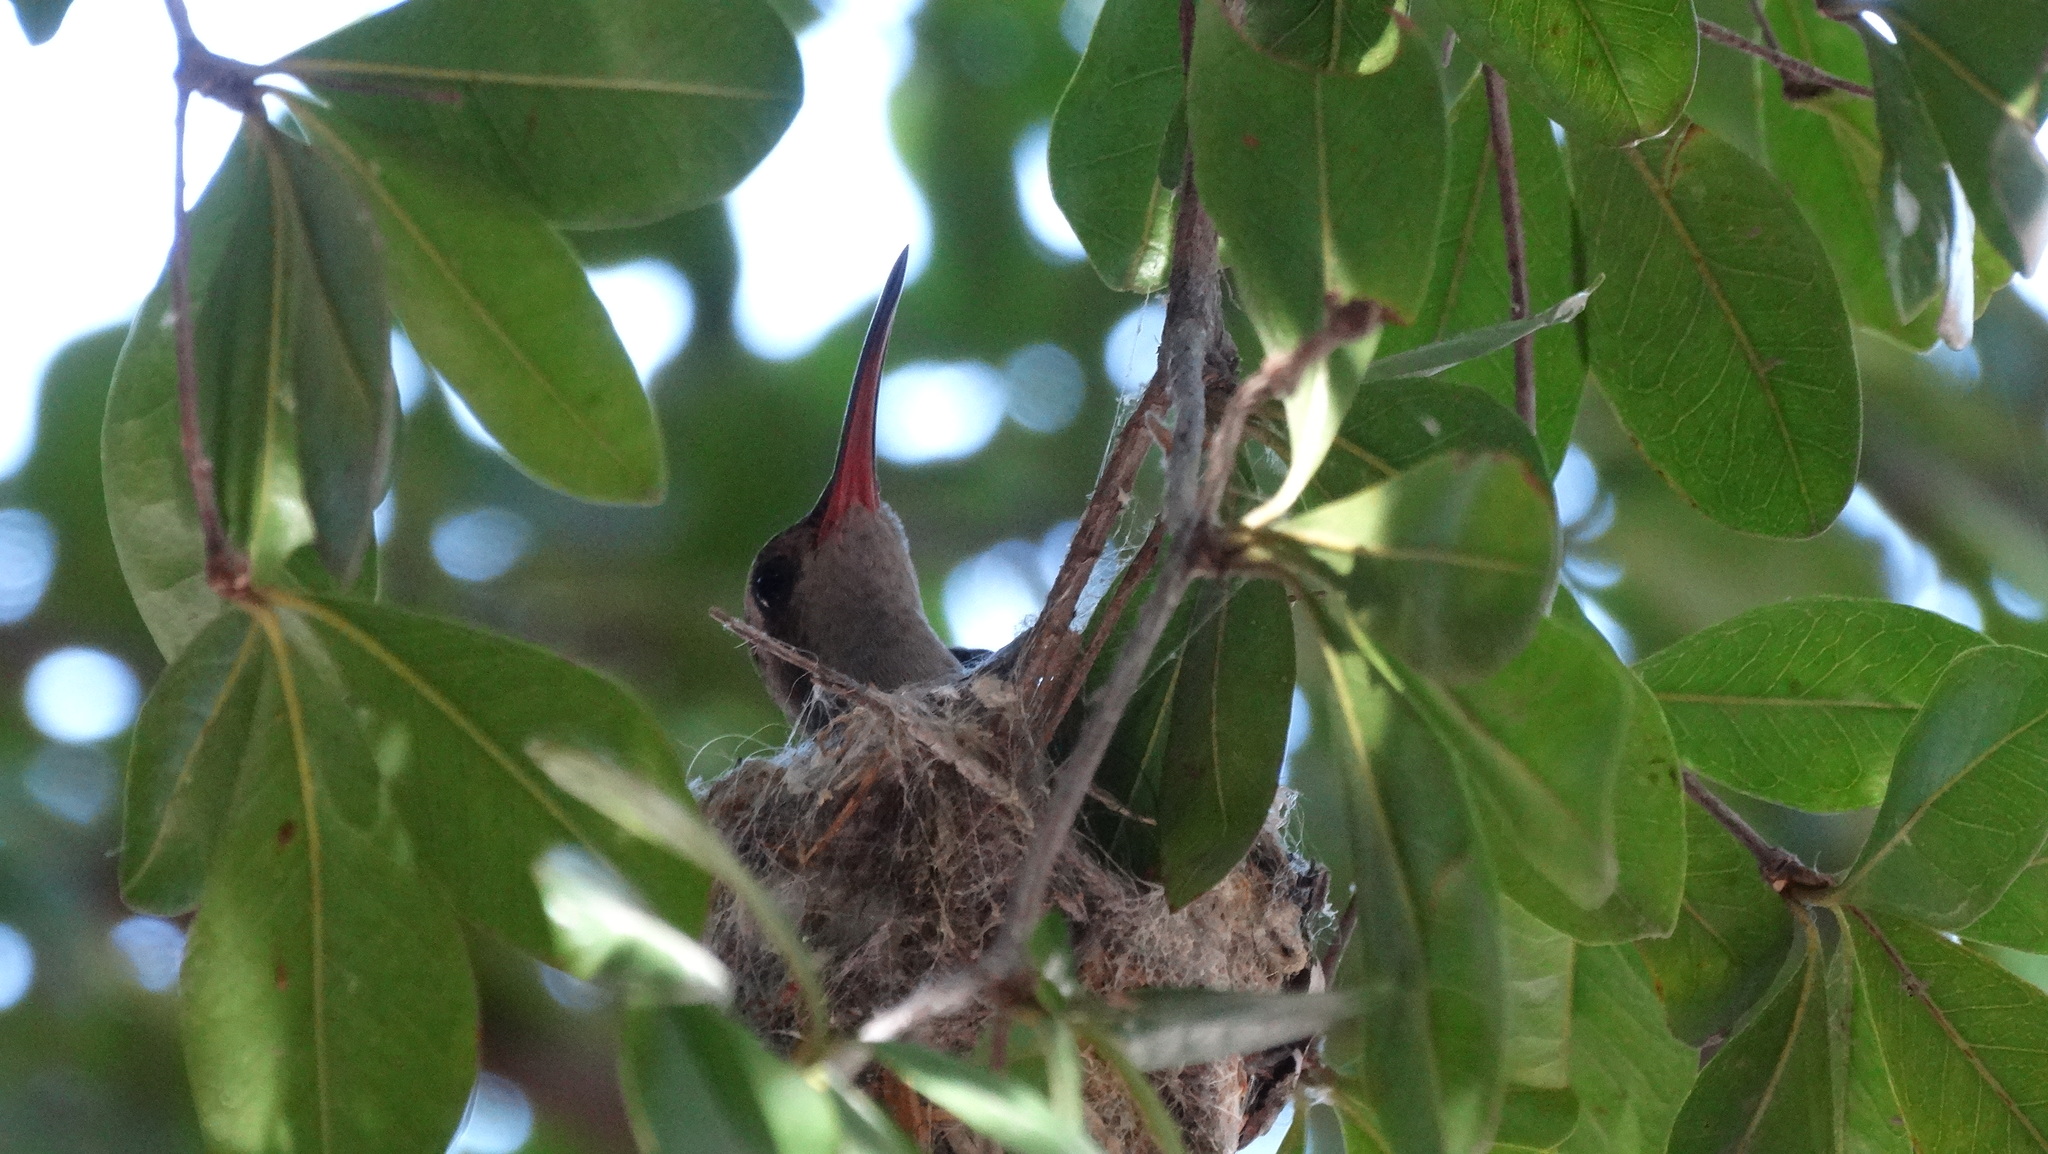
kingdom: Animalia
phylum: Chordata
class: Aves
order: Apodiformes
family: Trochilidae
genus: Cynanthus
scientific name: Cynanthus latirostris
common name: Broad-billed hummingbird
